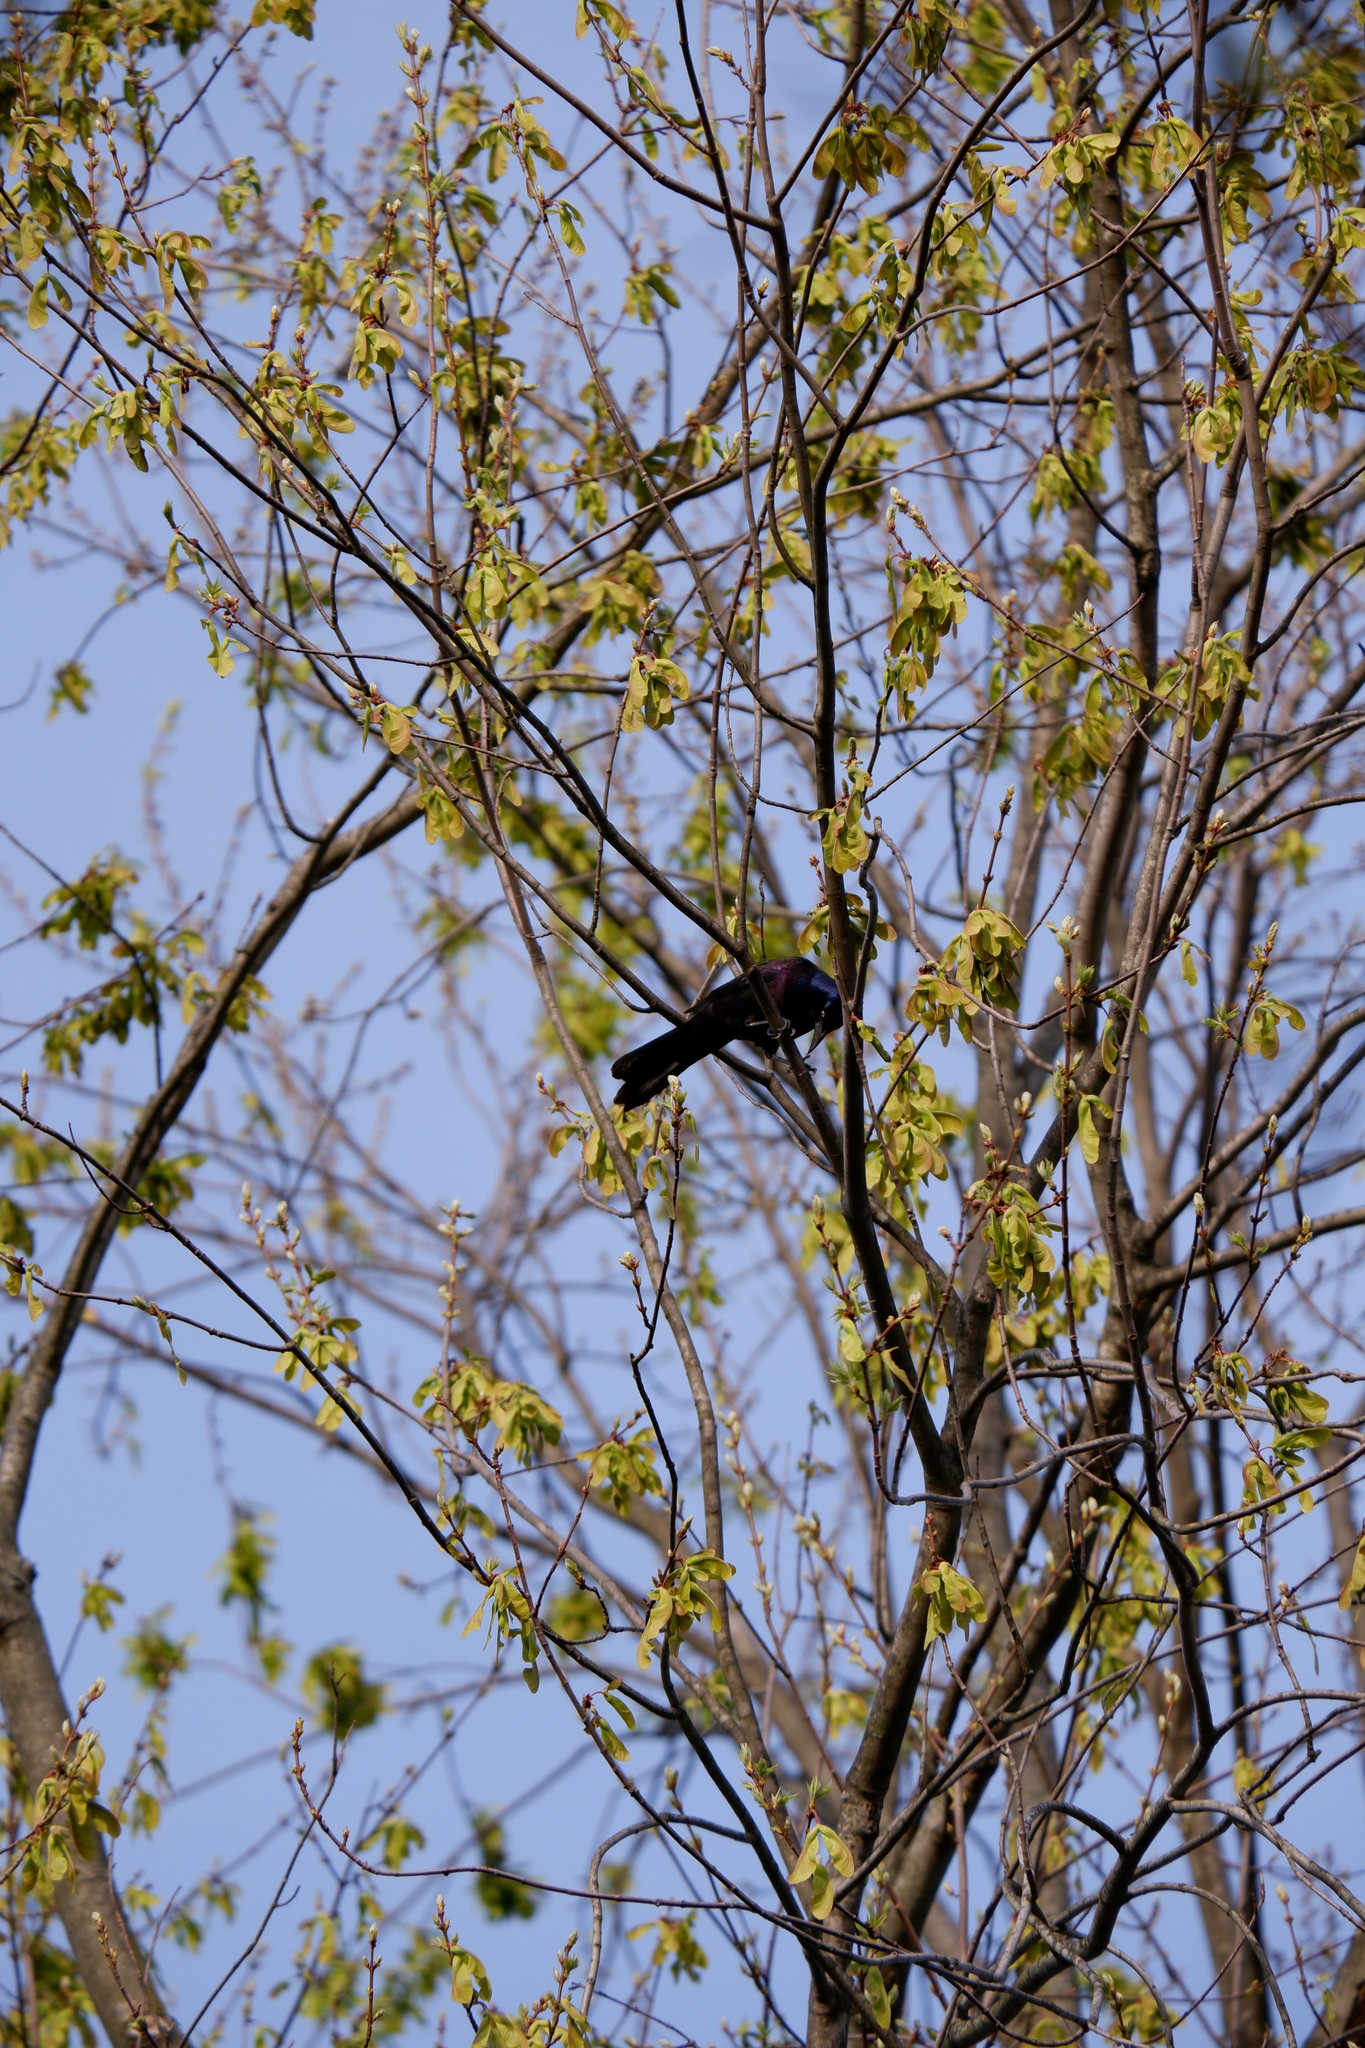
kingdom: Animalia
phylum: Chordata
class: Aves
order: Passeriformes
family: Icteridae
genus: Quiscalus
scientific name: Quiscalus quiscula
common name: Common grackle
